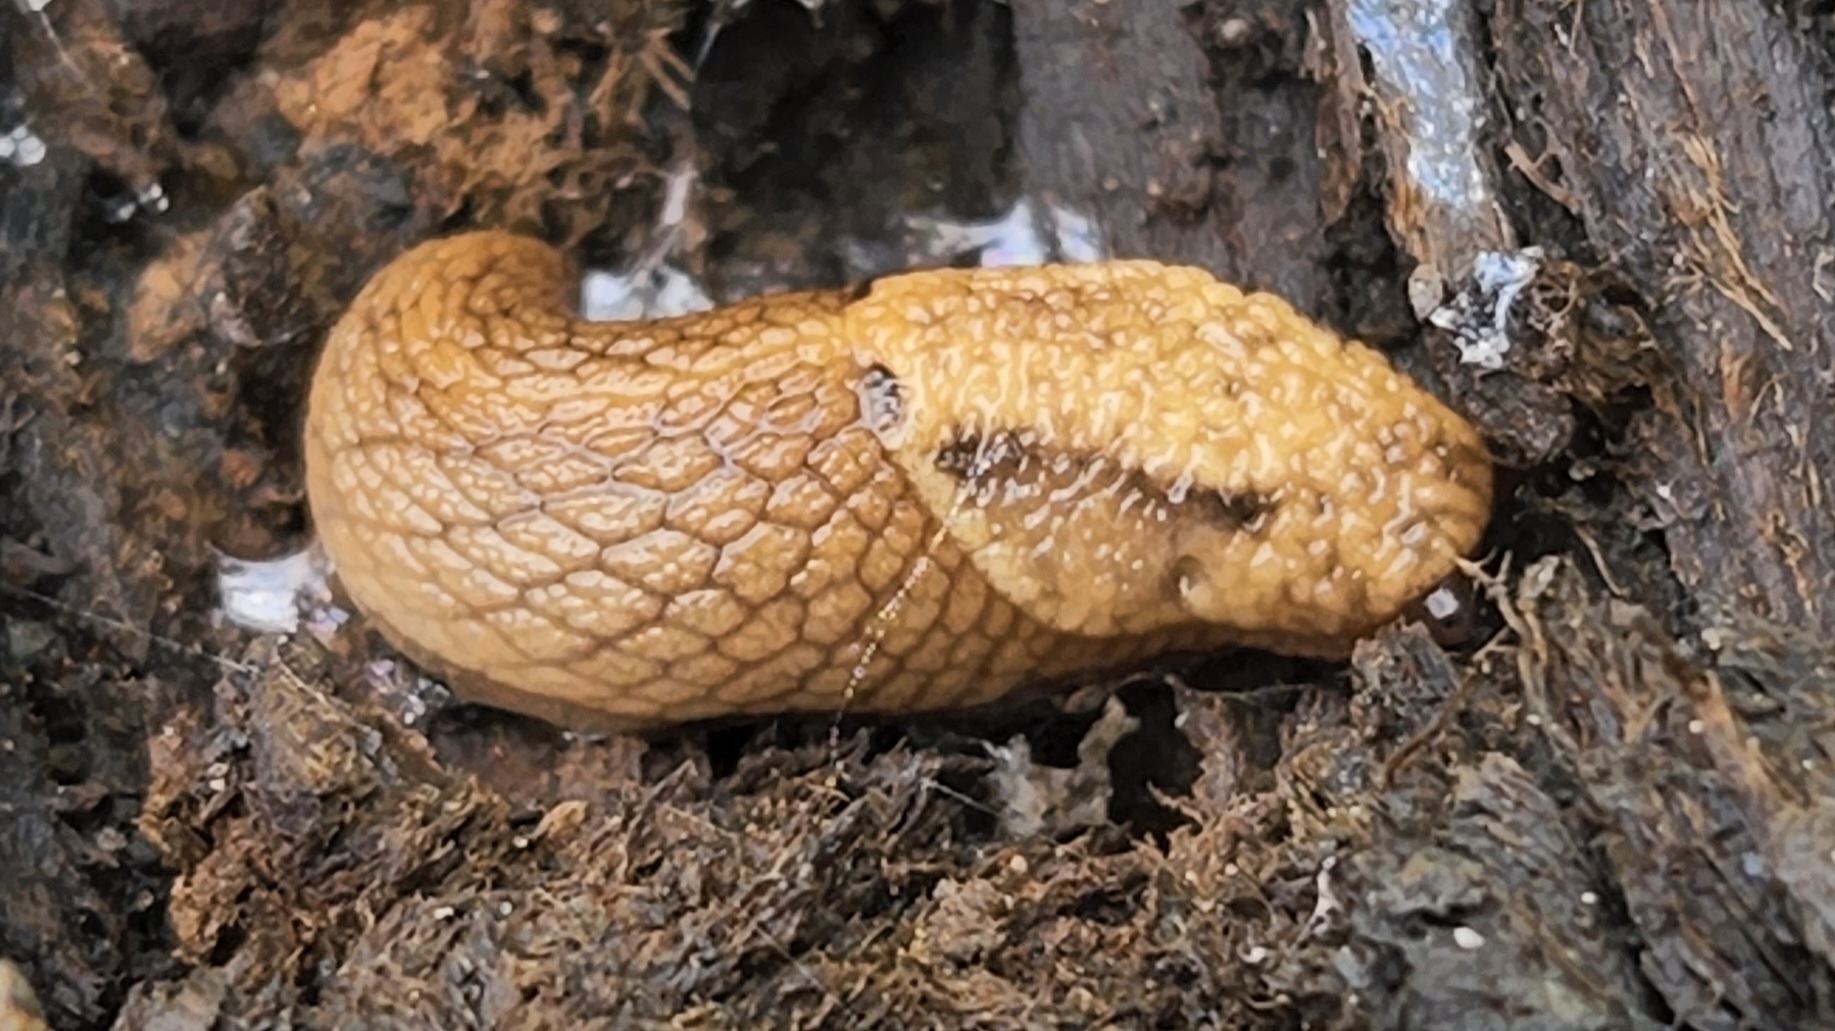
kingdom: Animalia
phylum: Mollusca
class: Gastropoda
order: Stylommatophora
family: Ariolimacidae
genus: Prophysaon
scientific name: Prophysaon andersonii
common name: Reticulate taildropper
